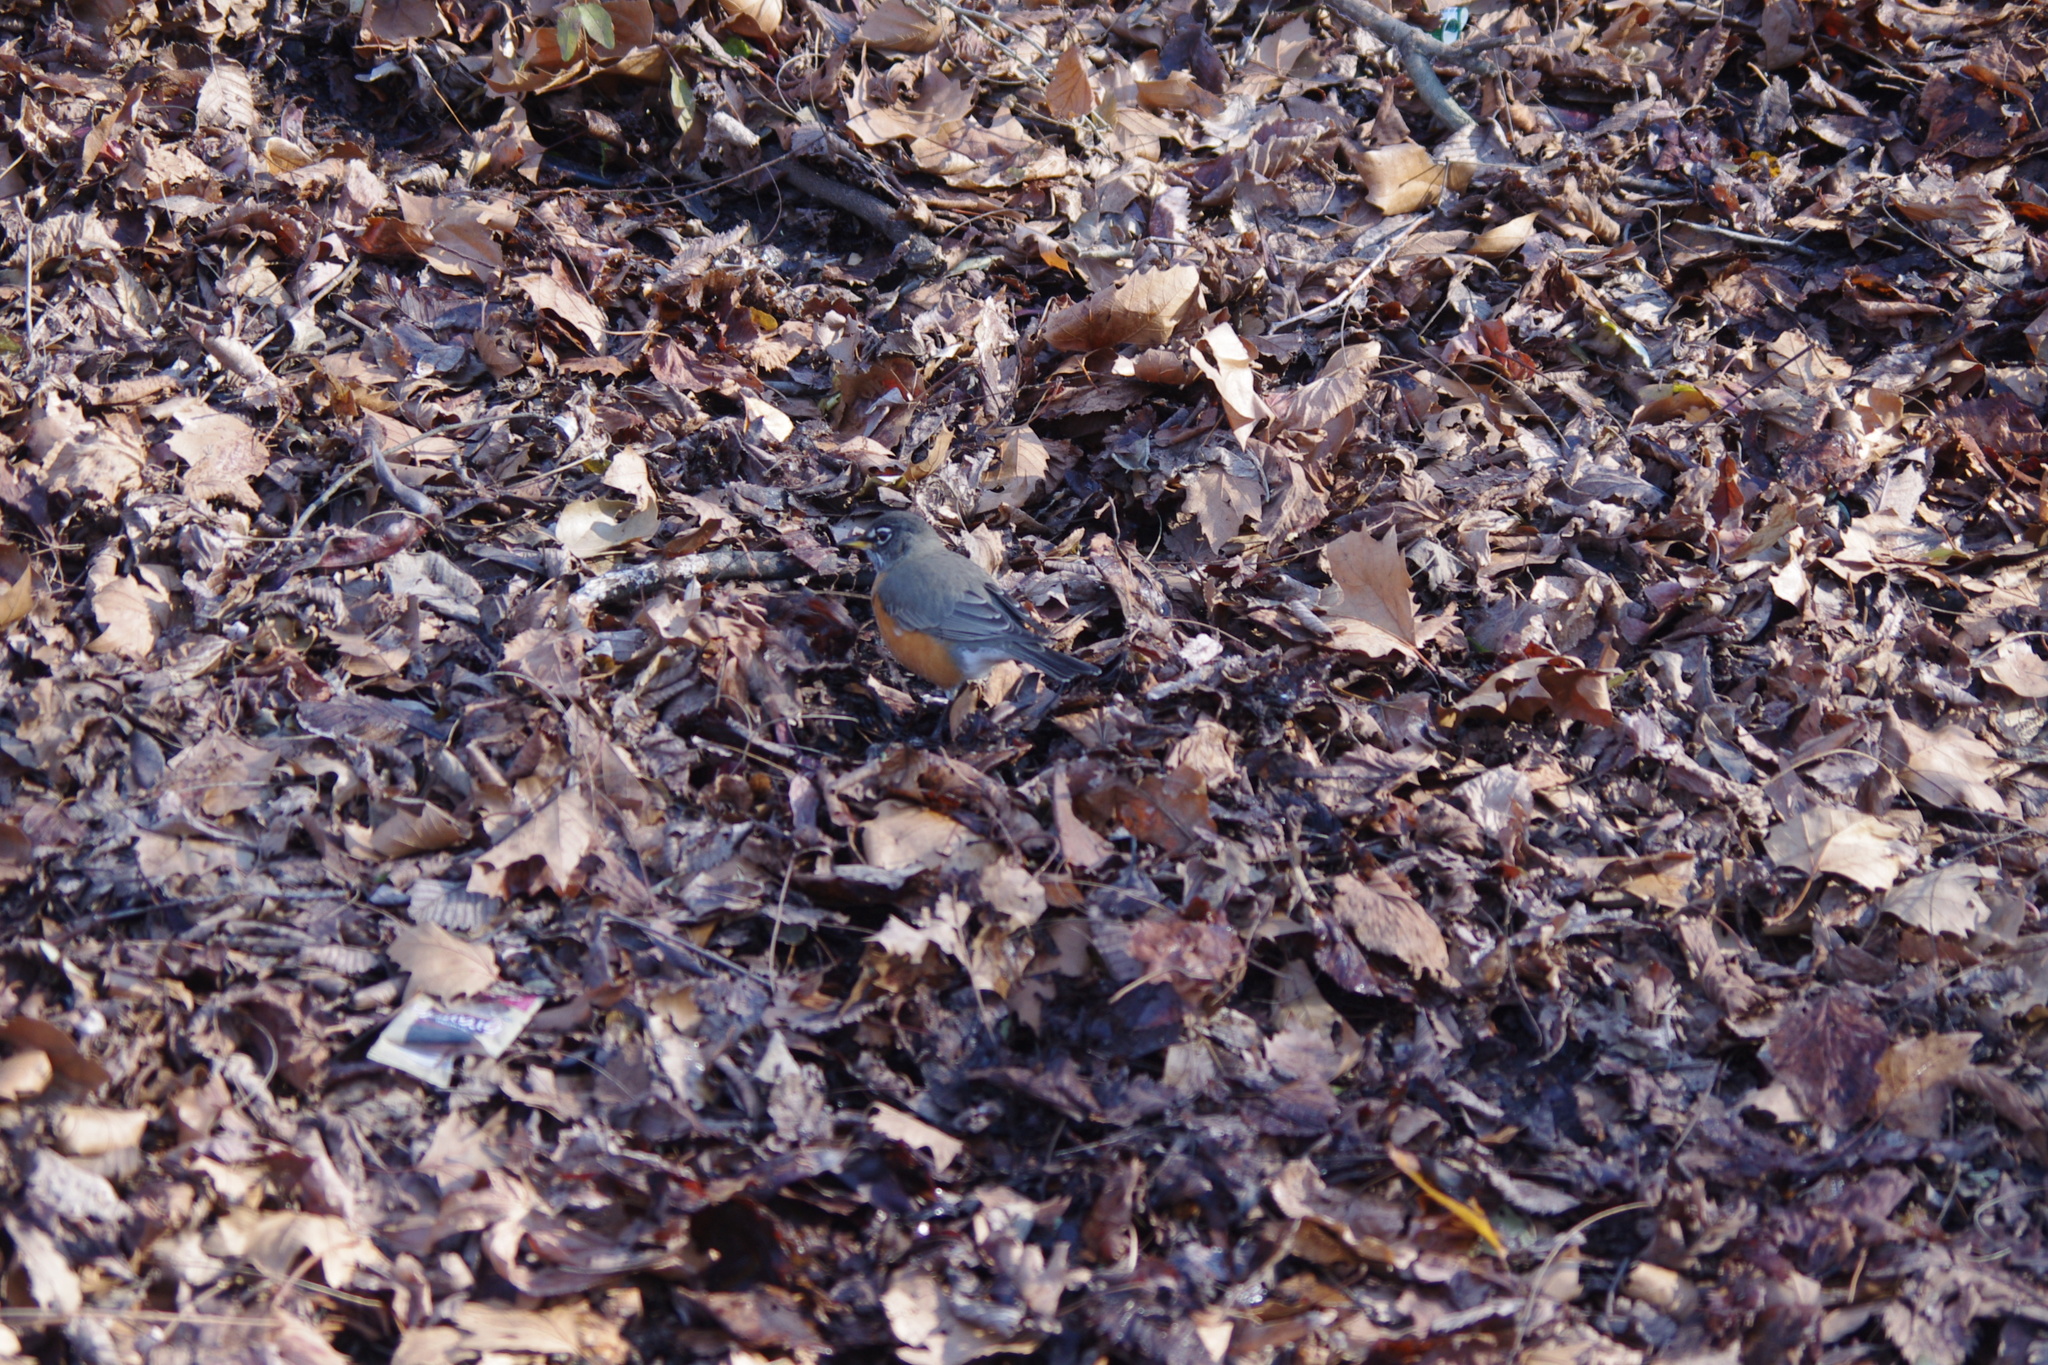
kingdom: Animalia
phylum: Chordata
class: Aves
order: Passeriformes
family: Turdidae
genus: Turdus
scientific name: Turdus migratorius
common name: American robin
